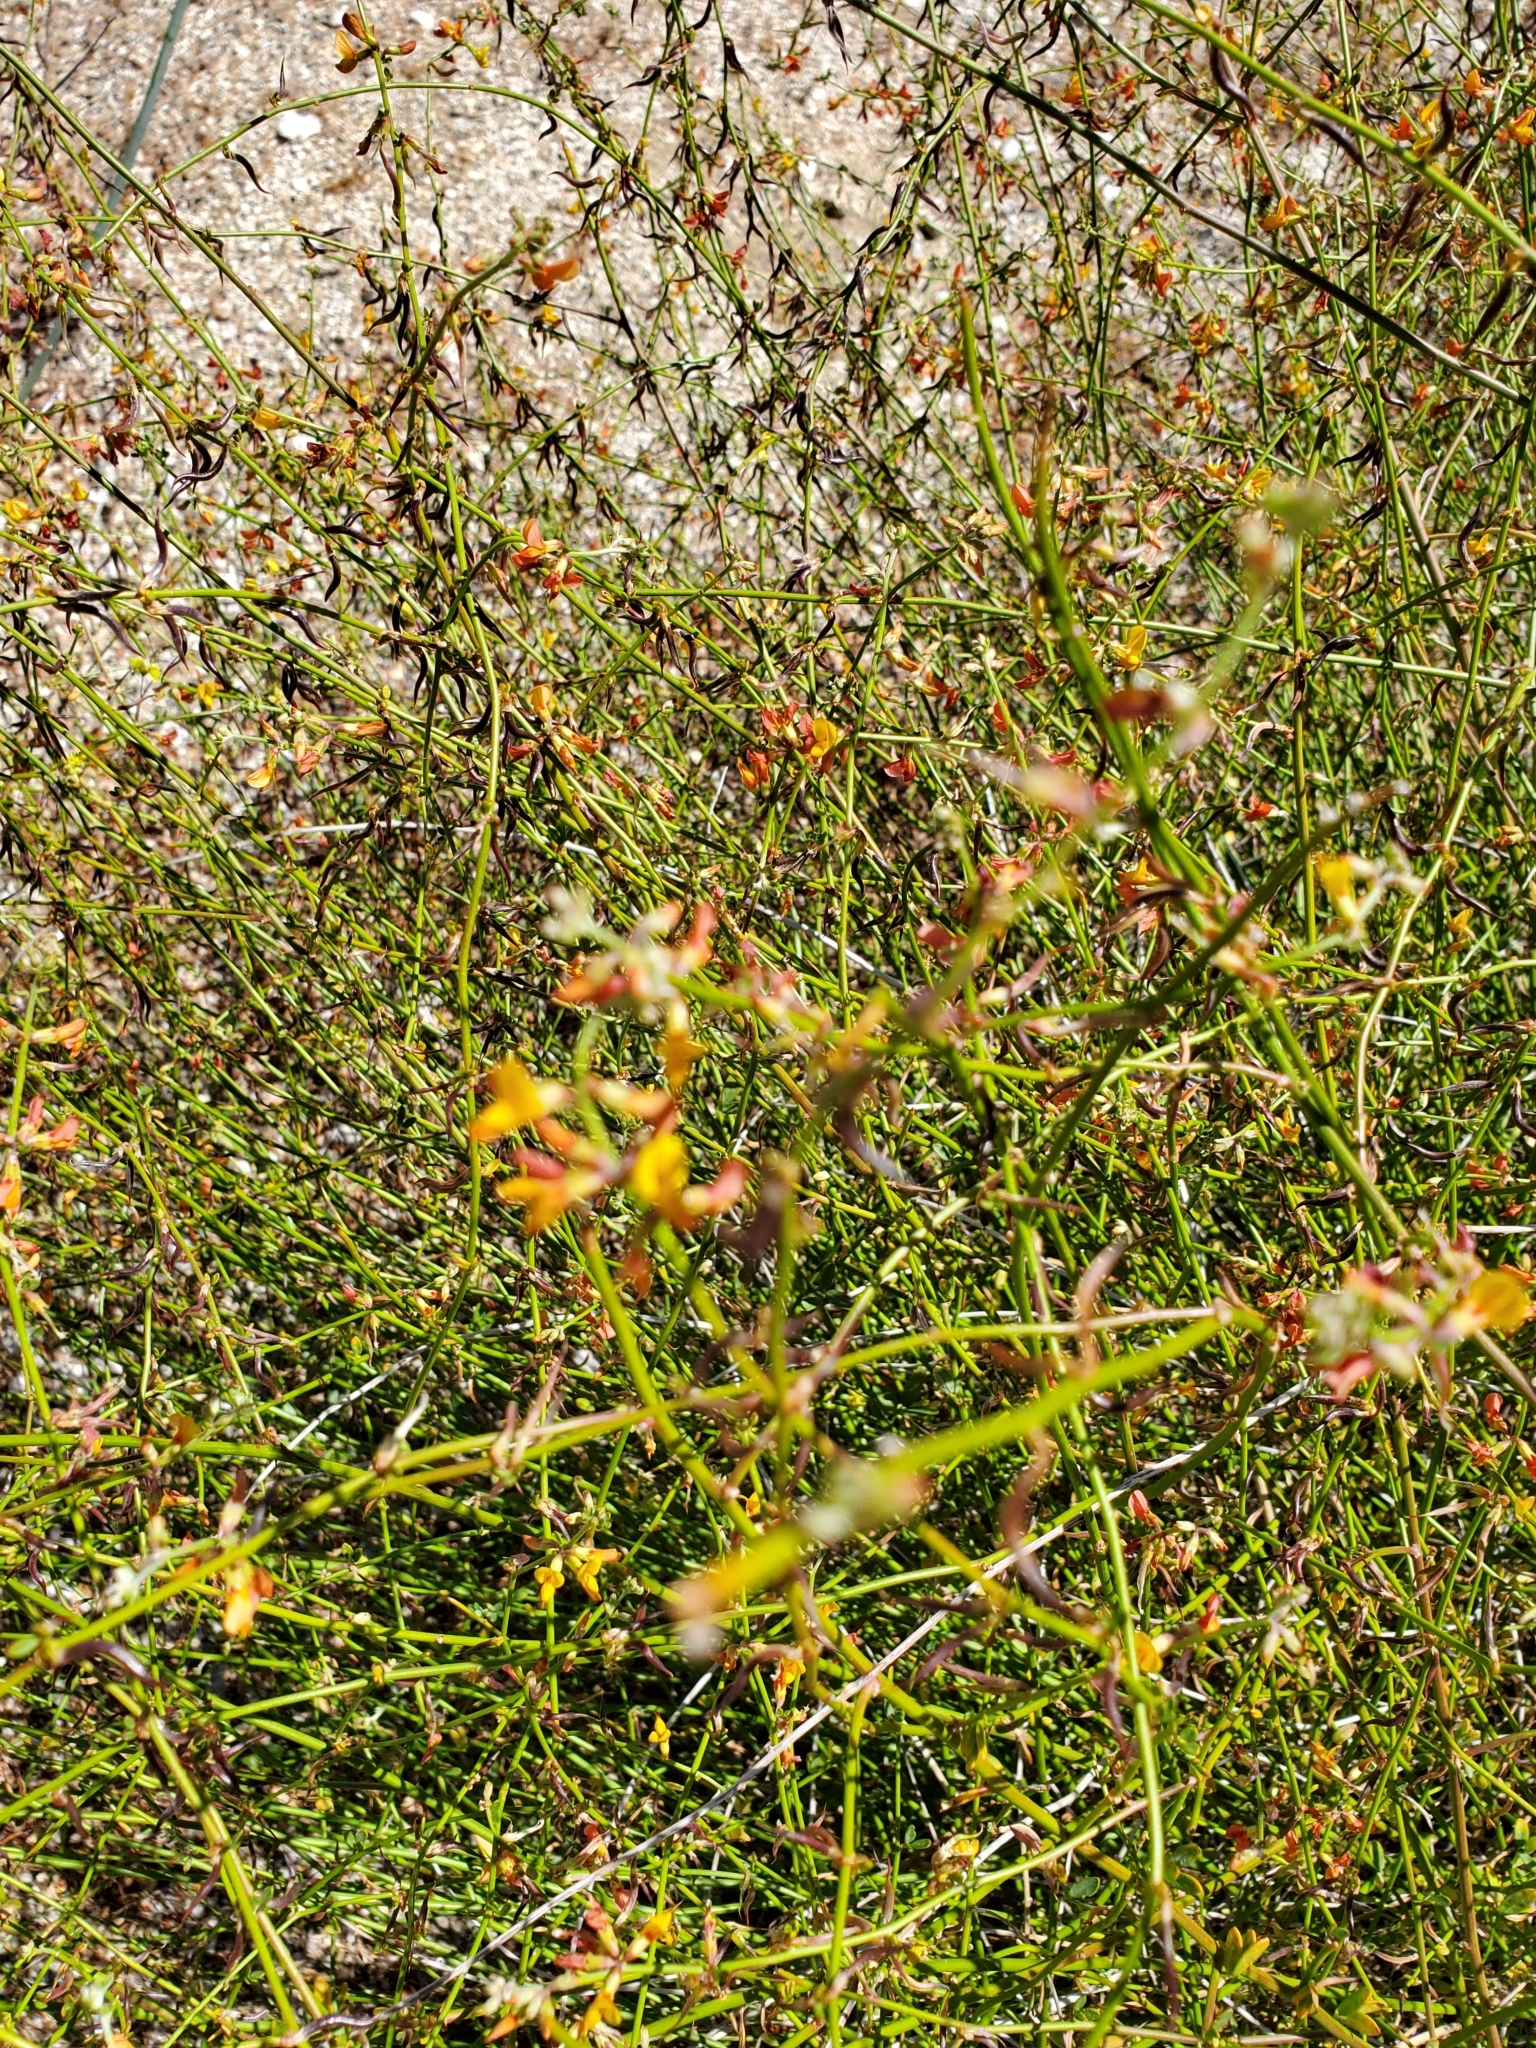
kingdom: Plantae
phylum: Tracheophyta
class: Magnoliopsida
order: Fabales
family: Fabaceae
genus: Acmispon
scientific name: Acmispon glaber
